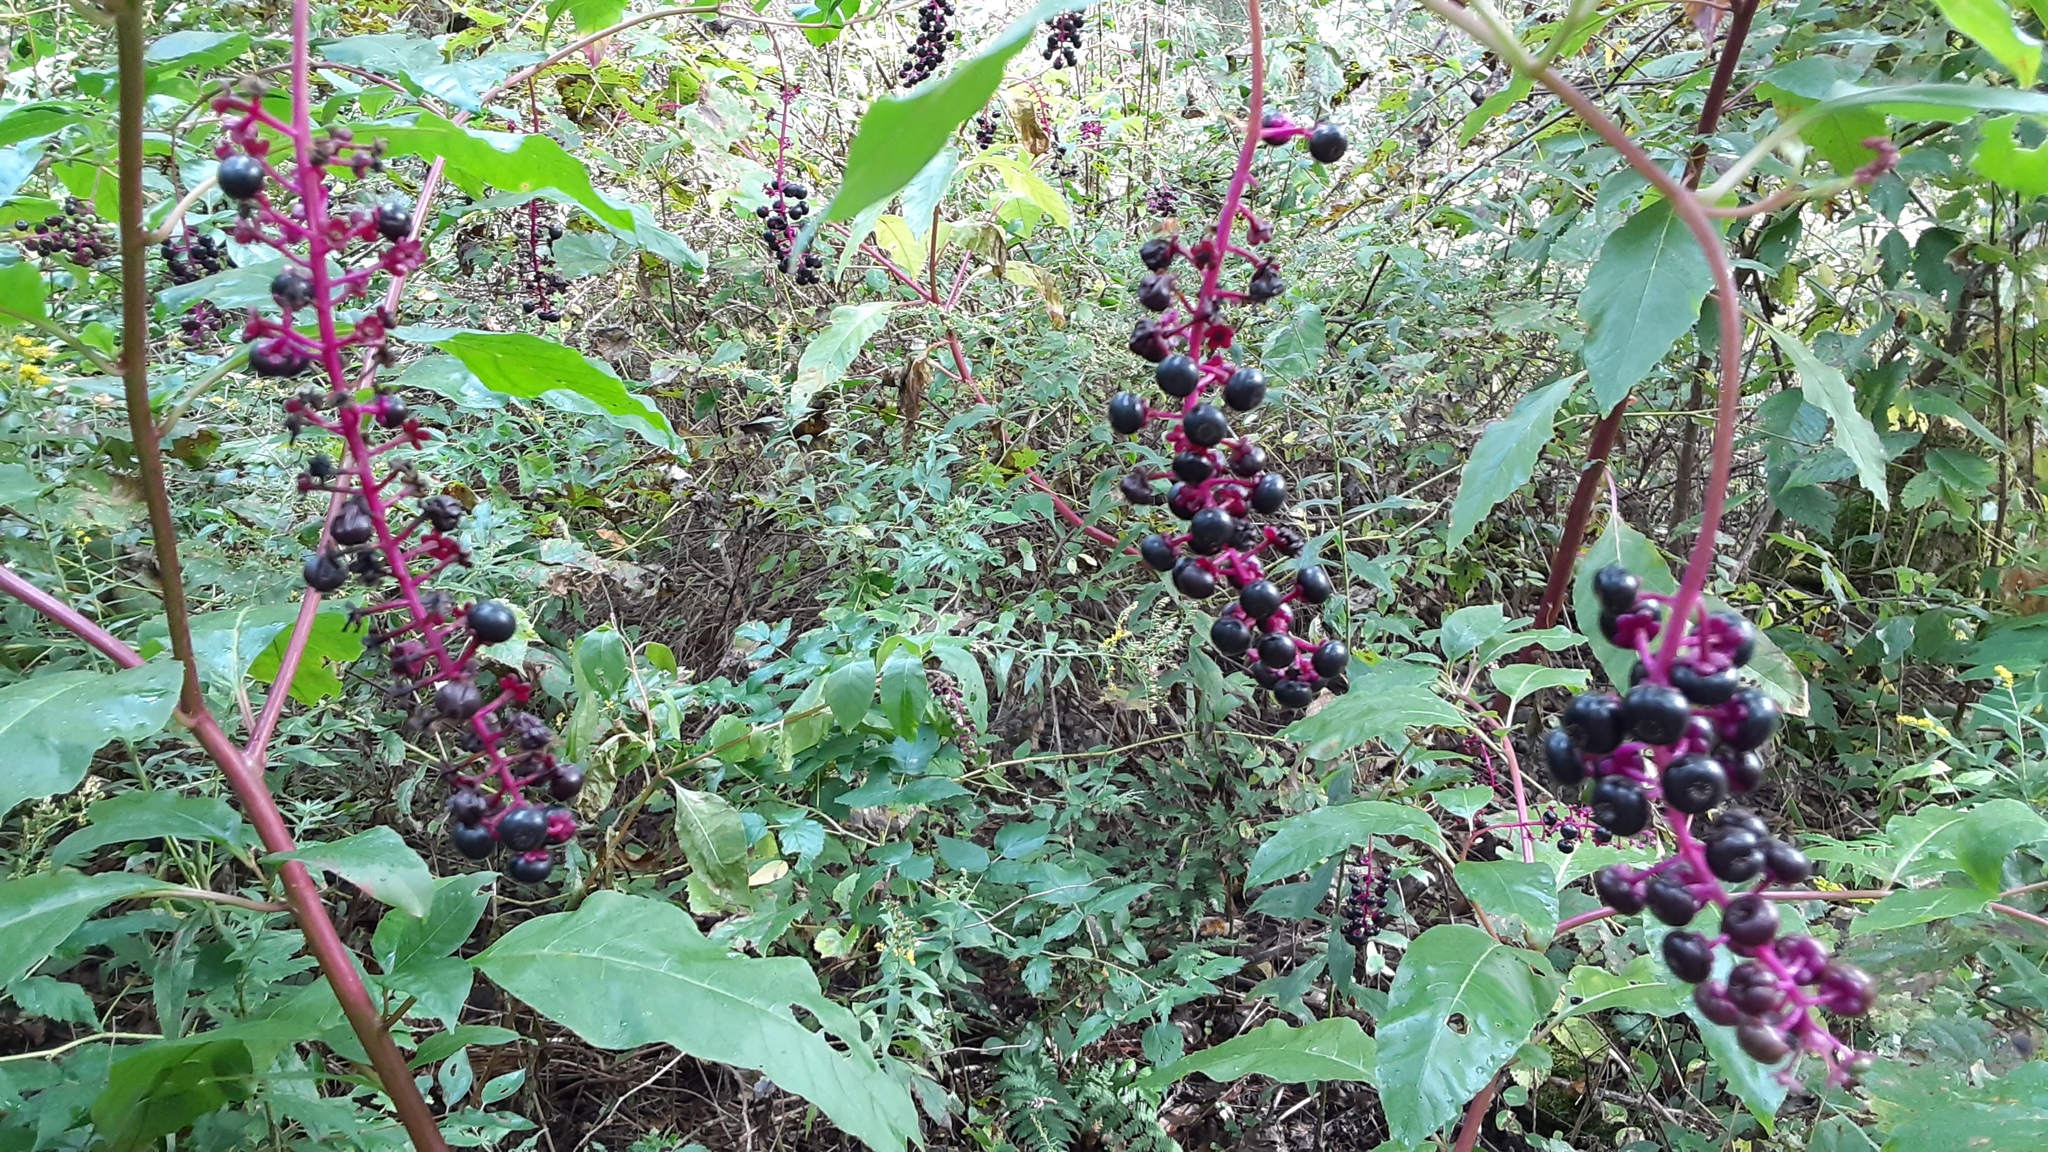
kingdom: Plantae
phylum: Tracheophyta
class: Magnoliopsida
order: Caryophyllales
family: Phytolaccaceae
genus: Phytolacca
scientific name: Phytolacca americana
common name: American pokeweed
